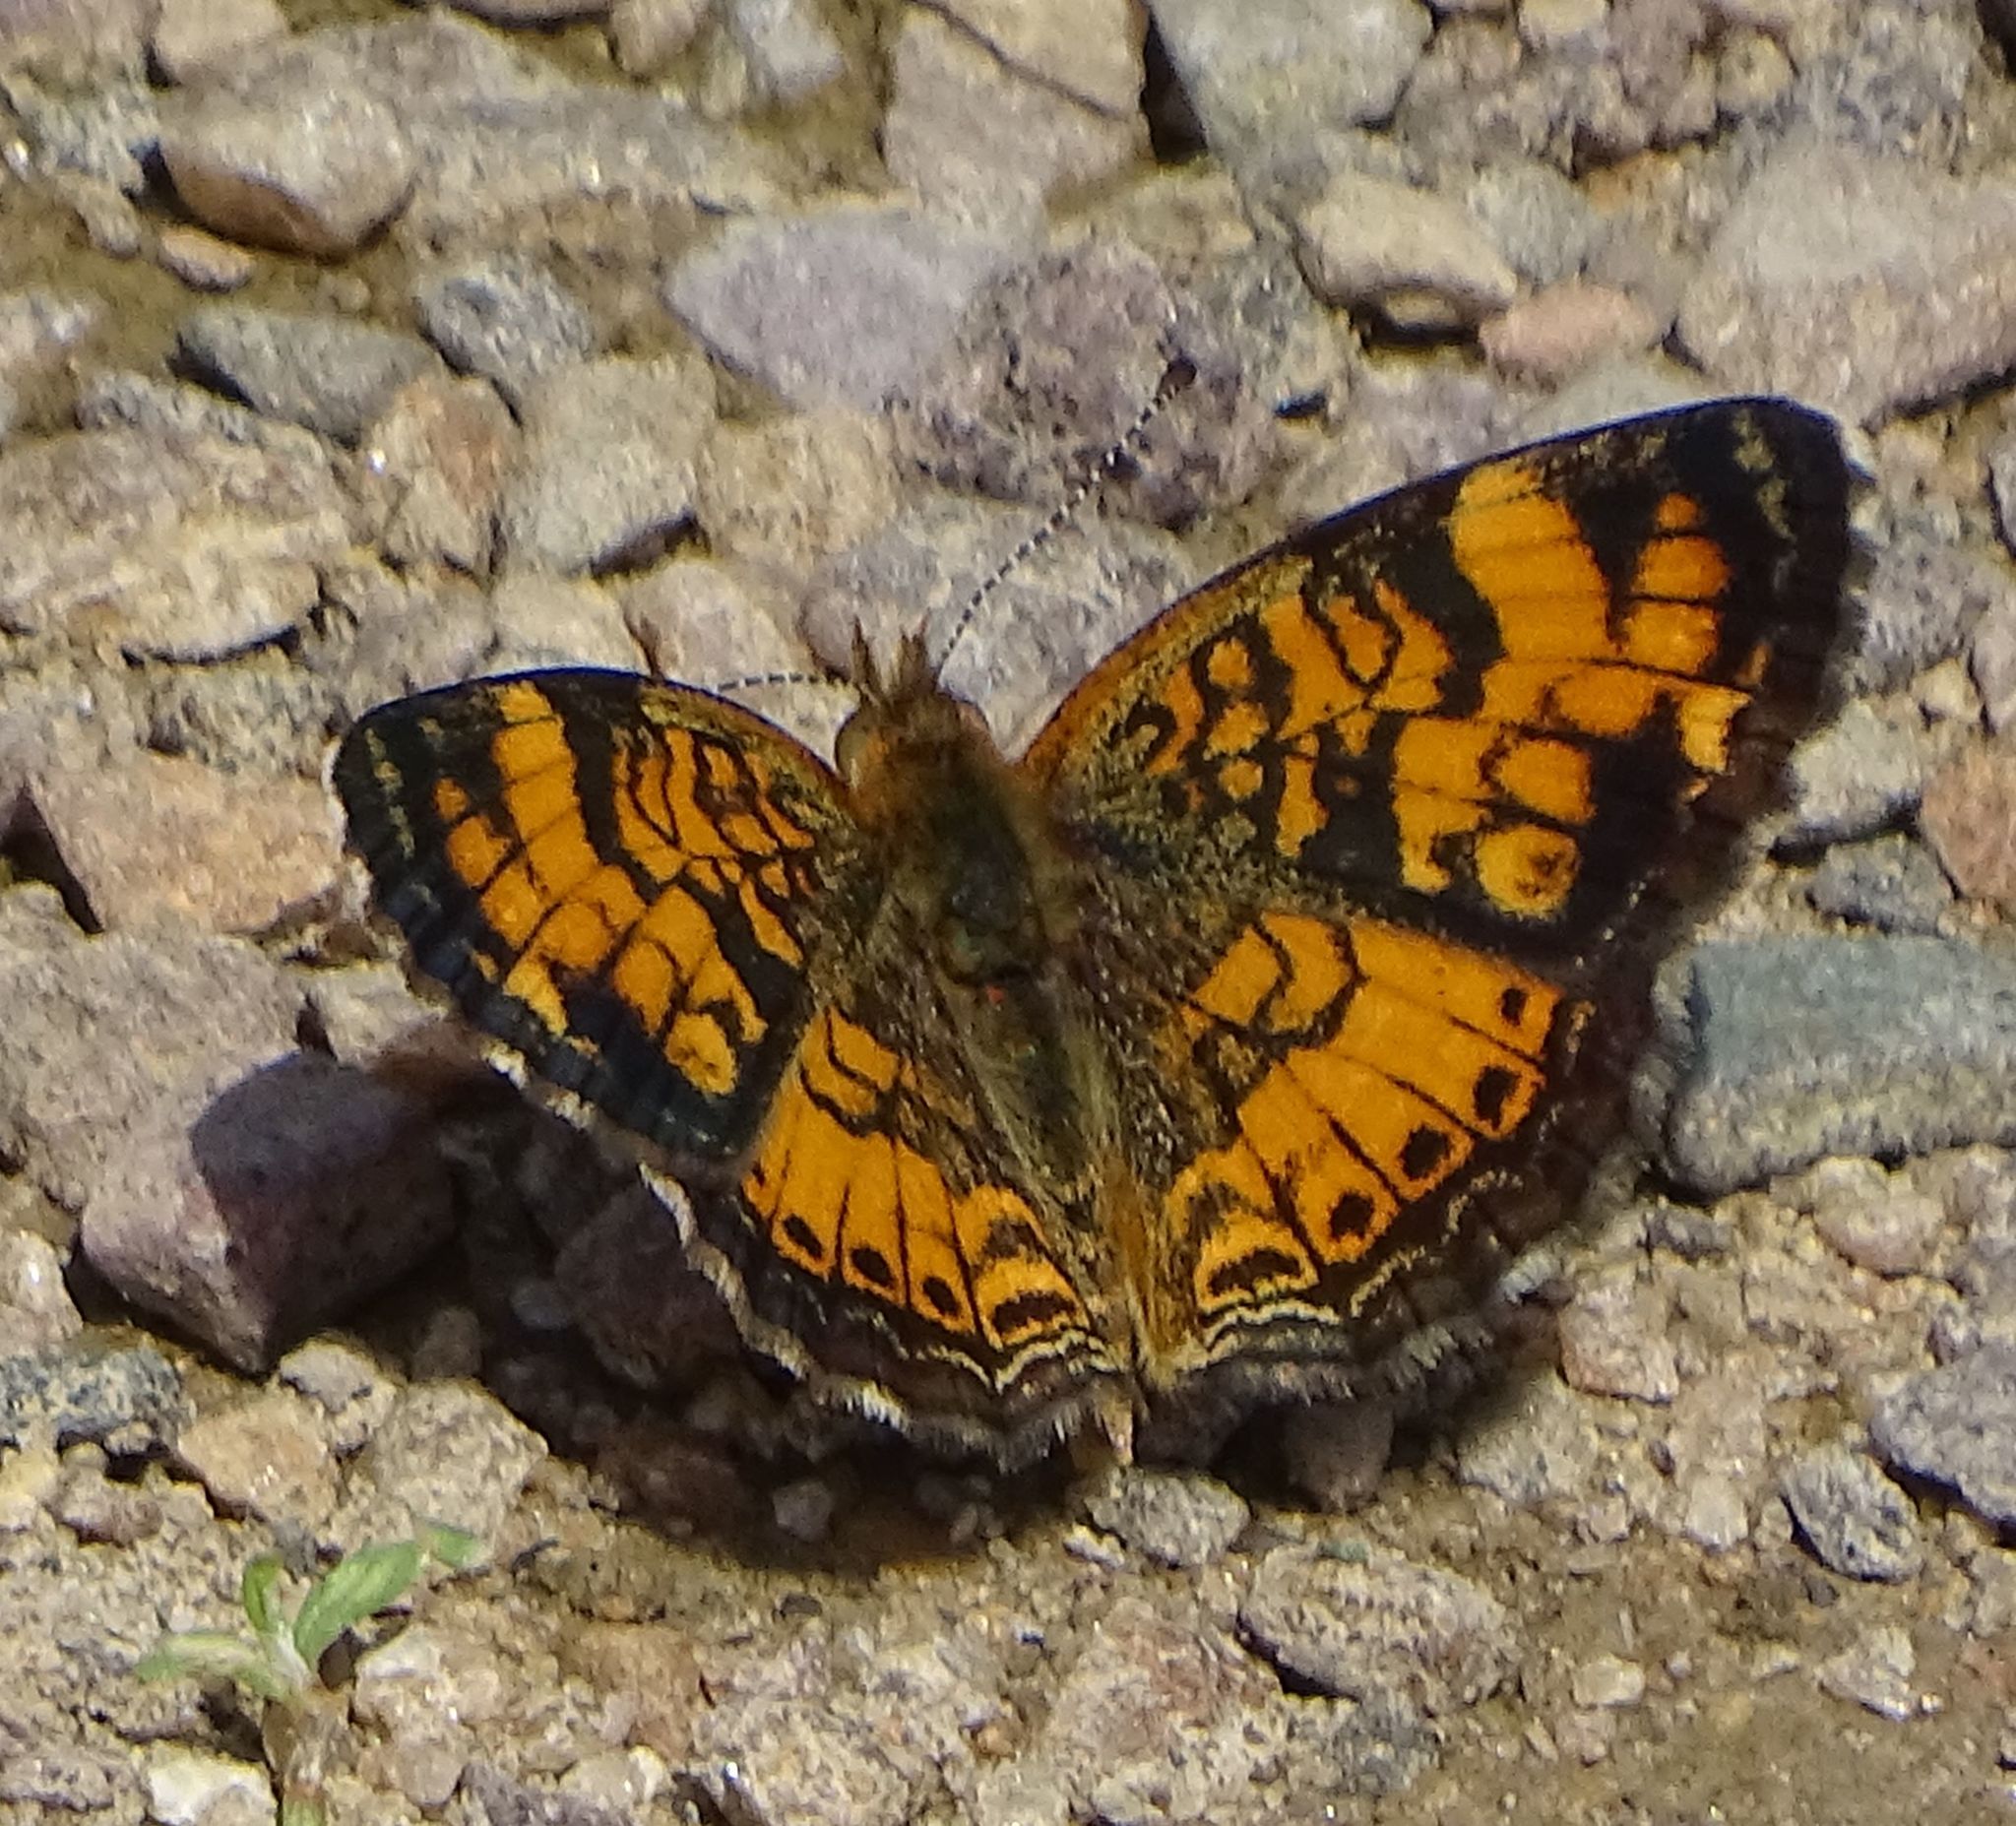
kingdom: Animalia
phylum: Arthropoda
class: Insecta
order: Lepidoptera
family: Nymphalidae
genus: Phyciodes
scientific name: Phyciodes tharos
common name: Pearl crescent
